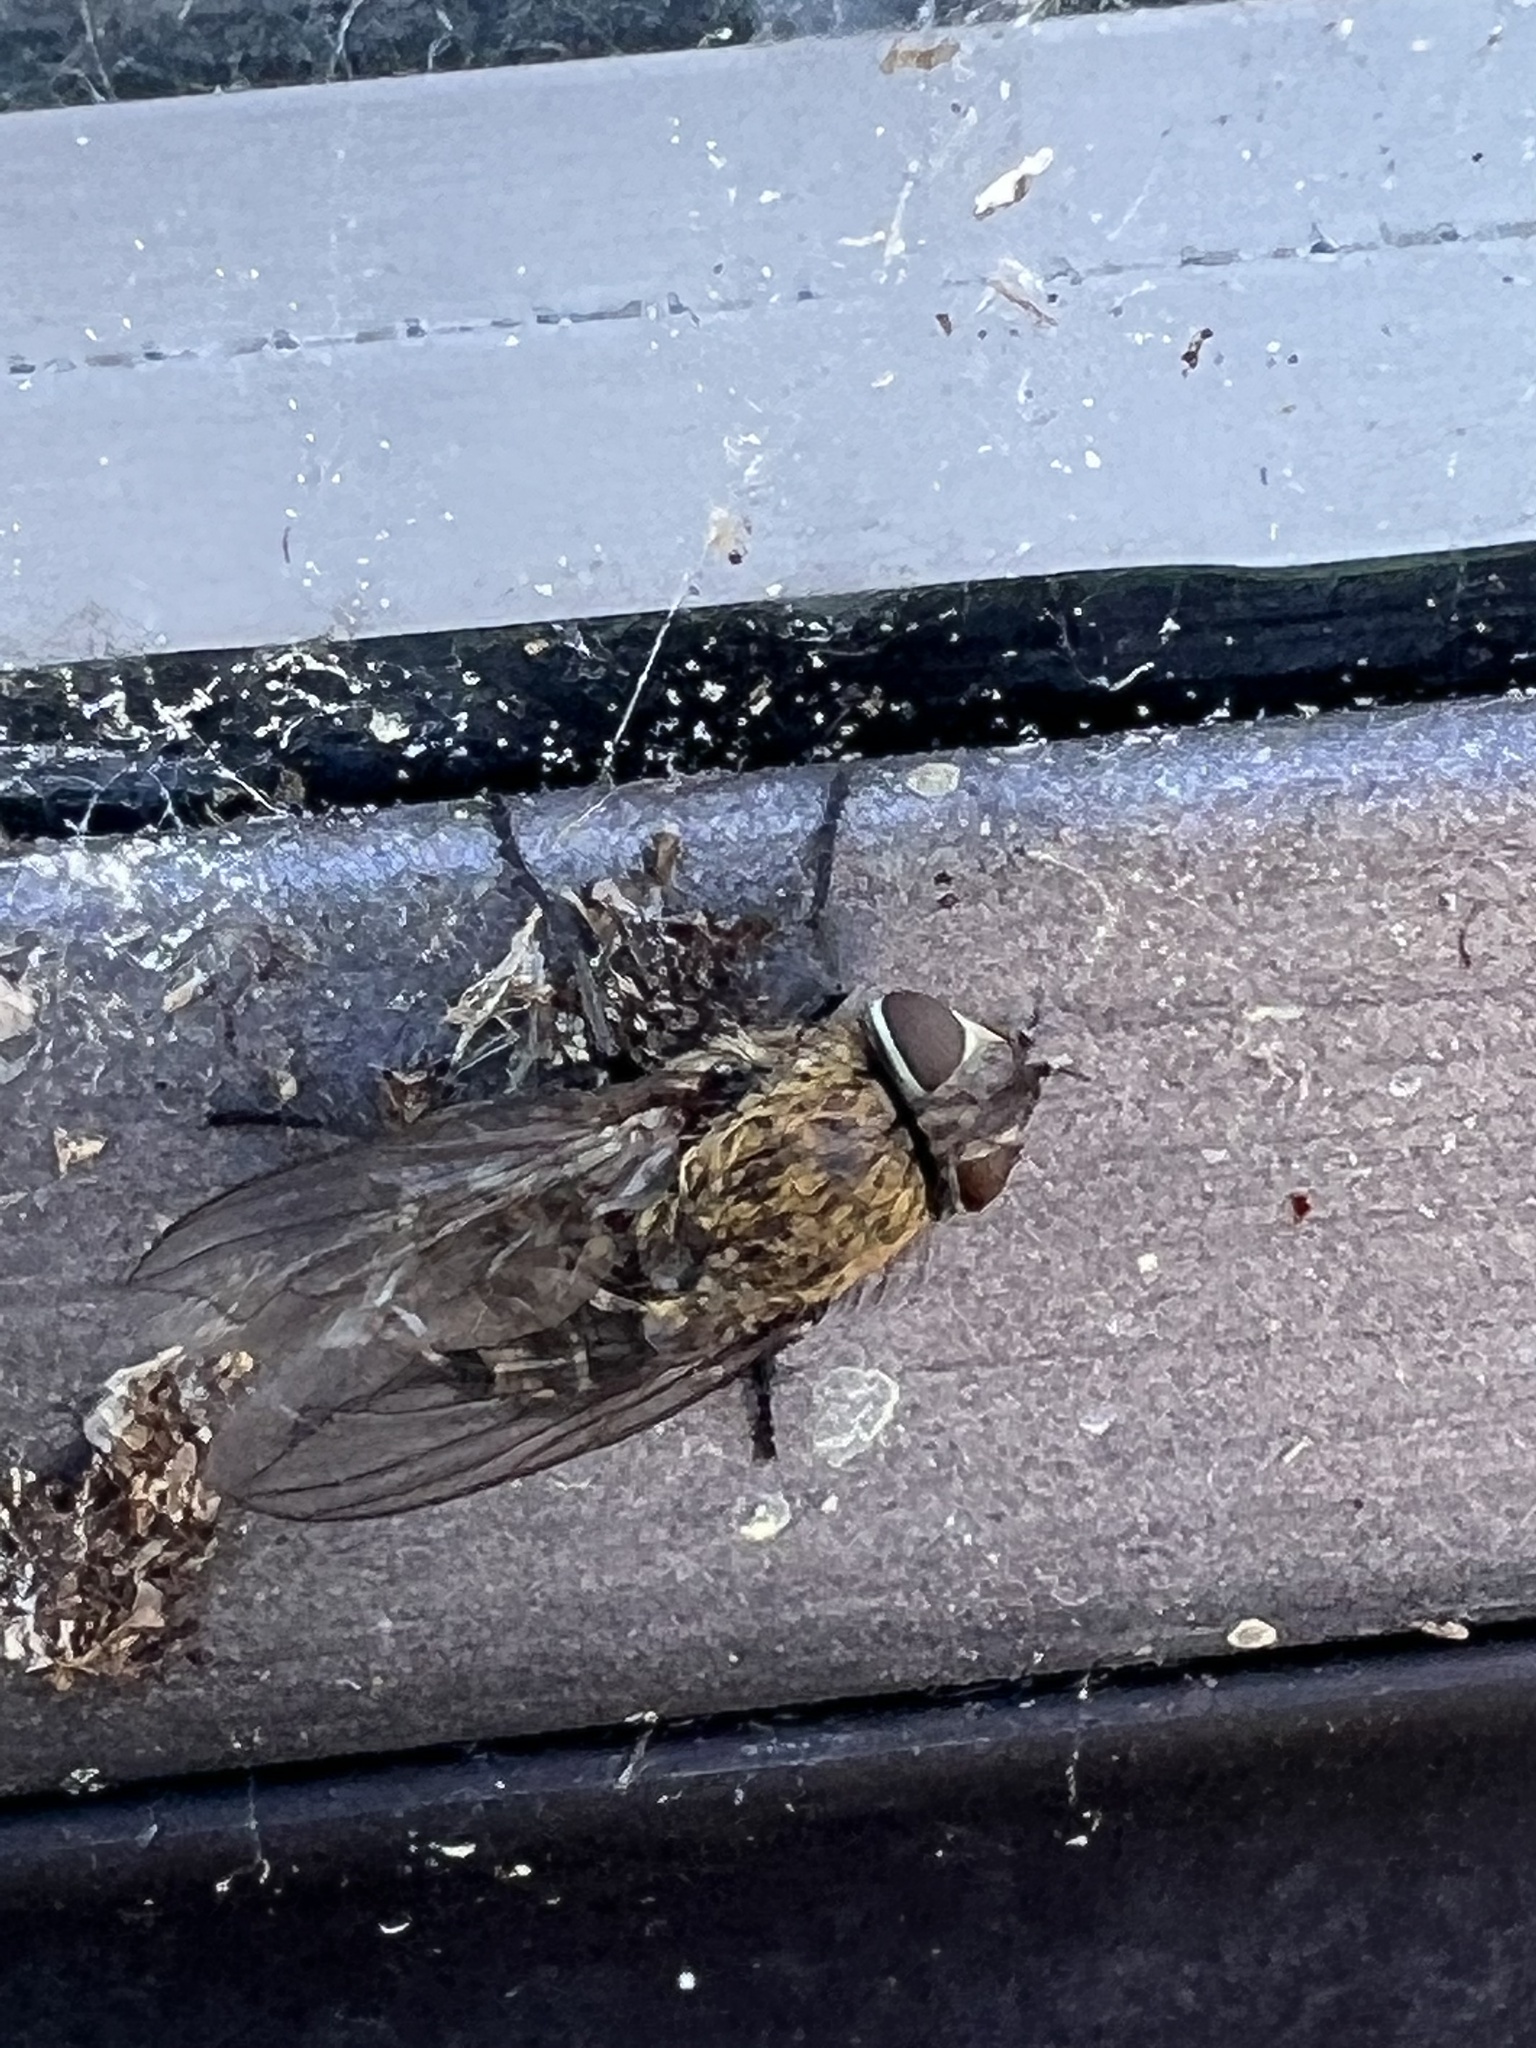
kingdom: Animalia
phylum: Arthropoda
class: Insecta
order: Diptera
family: Polleniidae
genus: Pollenia
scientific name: Pollenia
